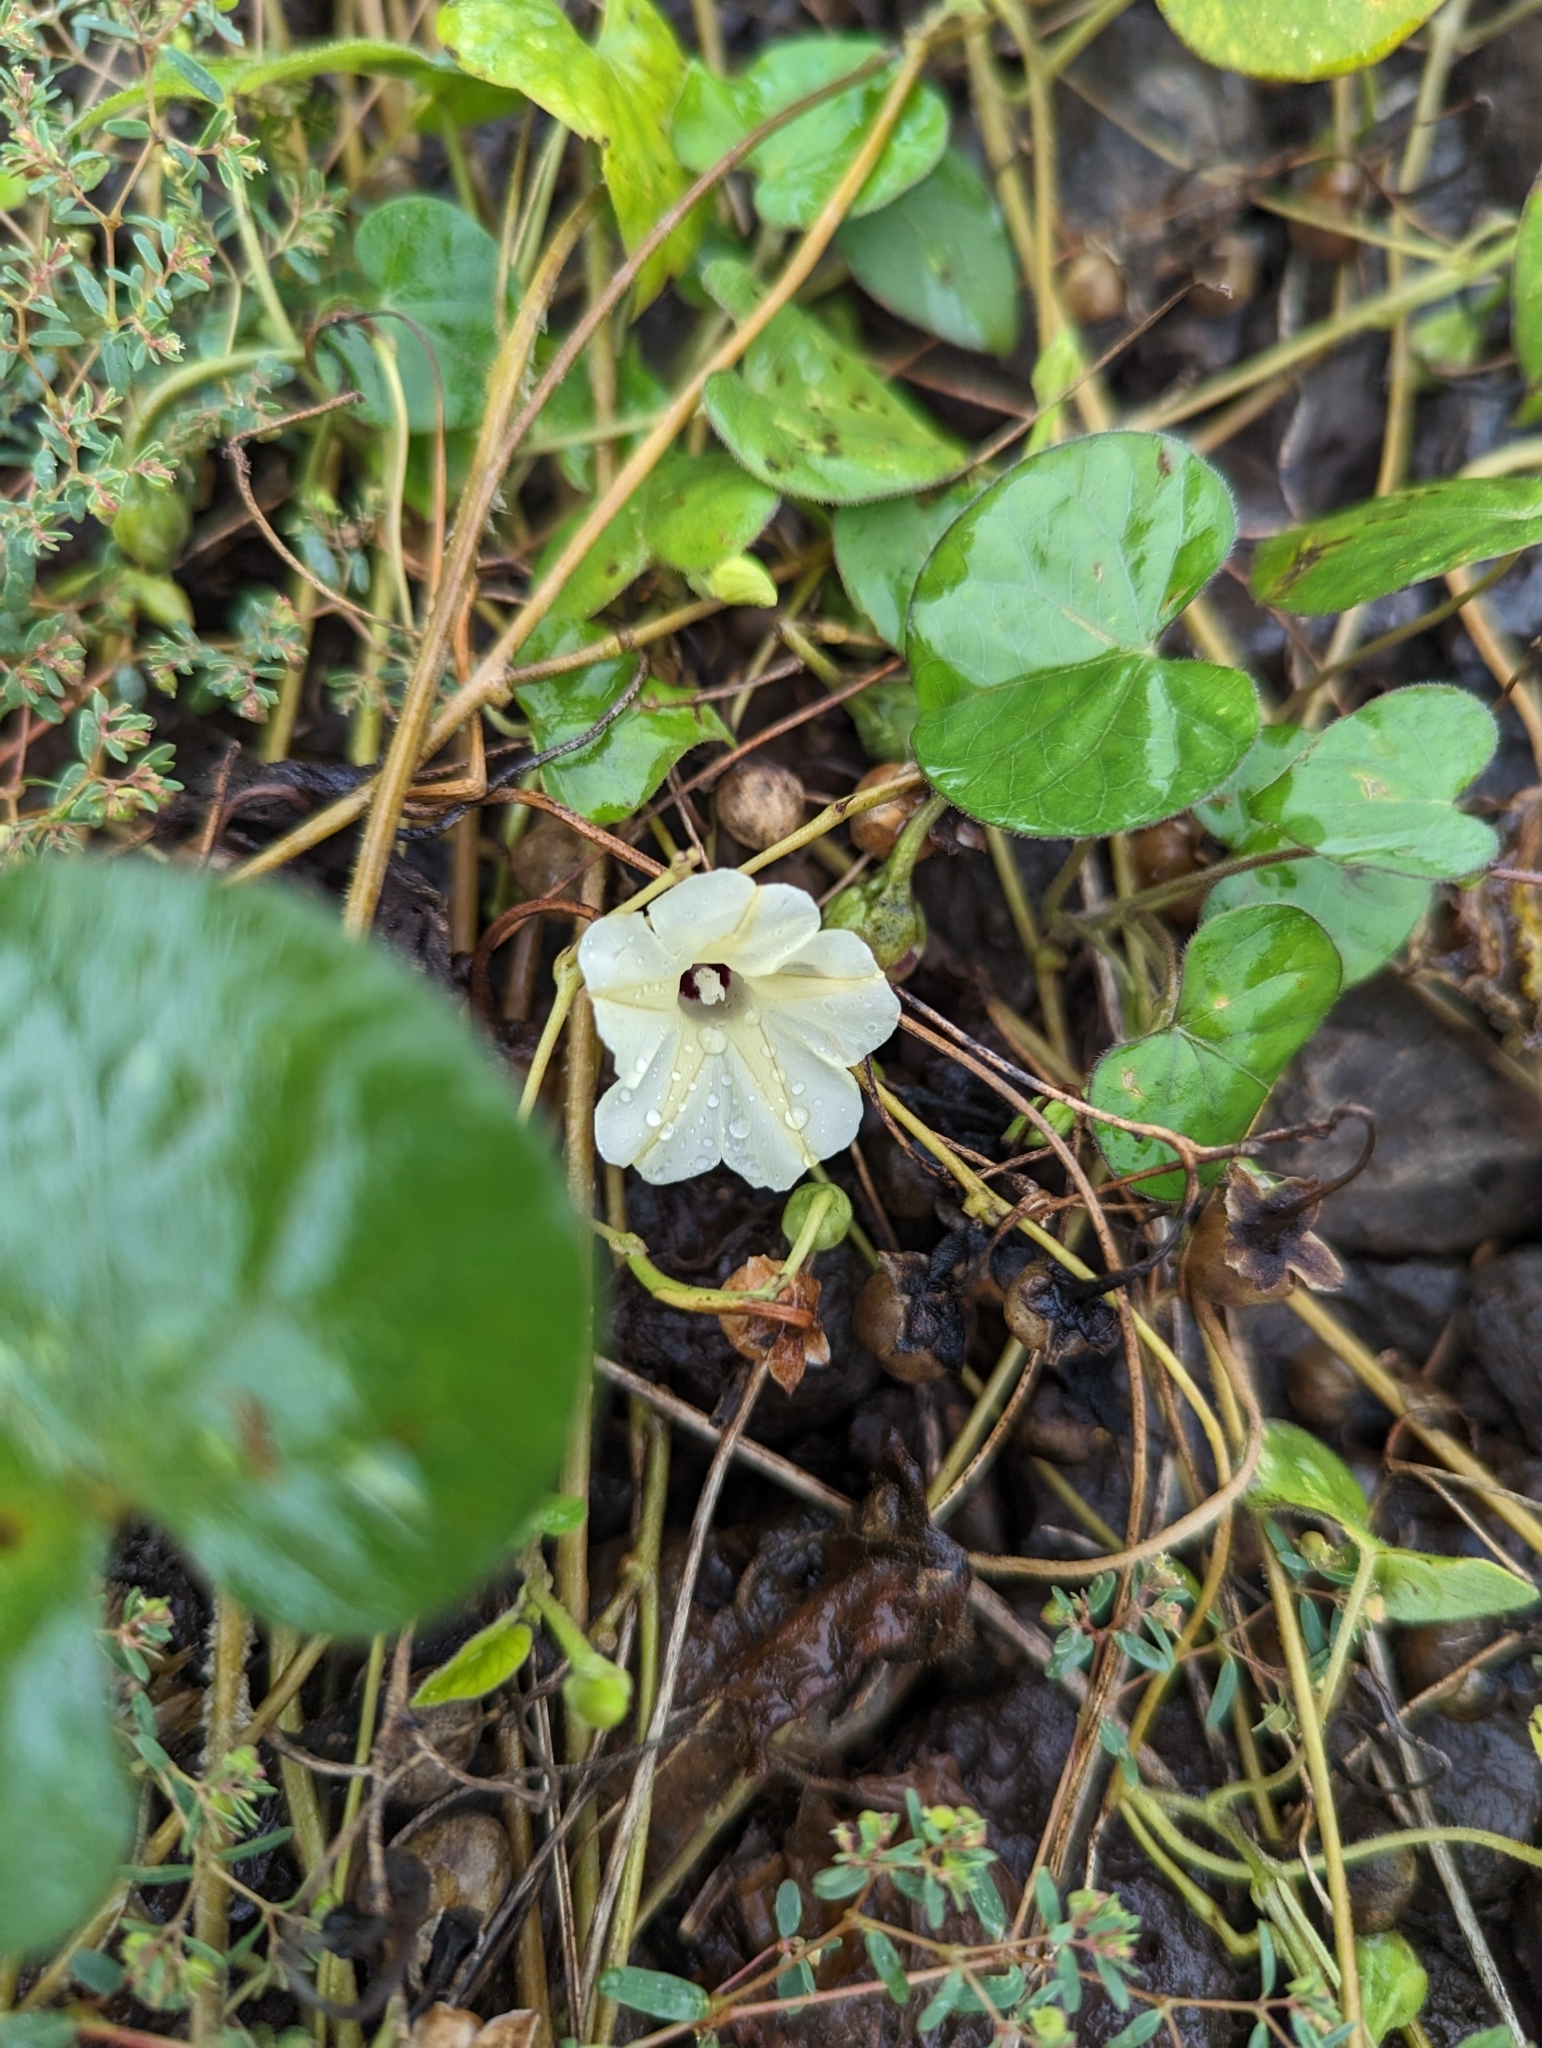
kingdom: Plantae
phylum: Tracheophyta
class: Magnoliopsida
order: Solanales
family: Convolvulaceae
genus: Ipomoea
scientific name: Ipomoea obscura
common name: Obscure morning-glory
